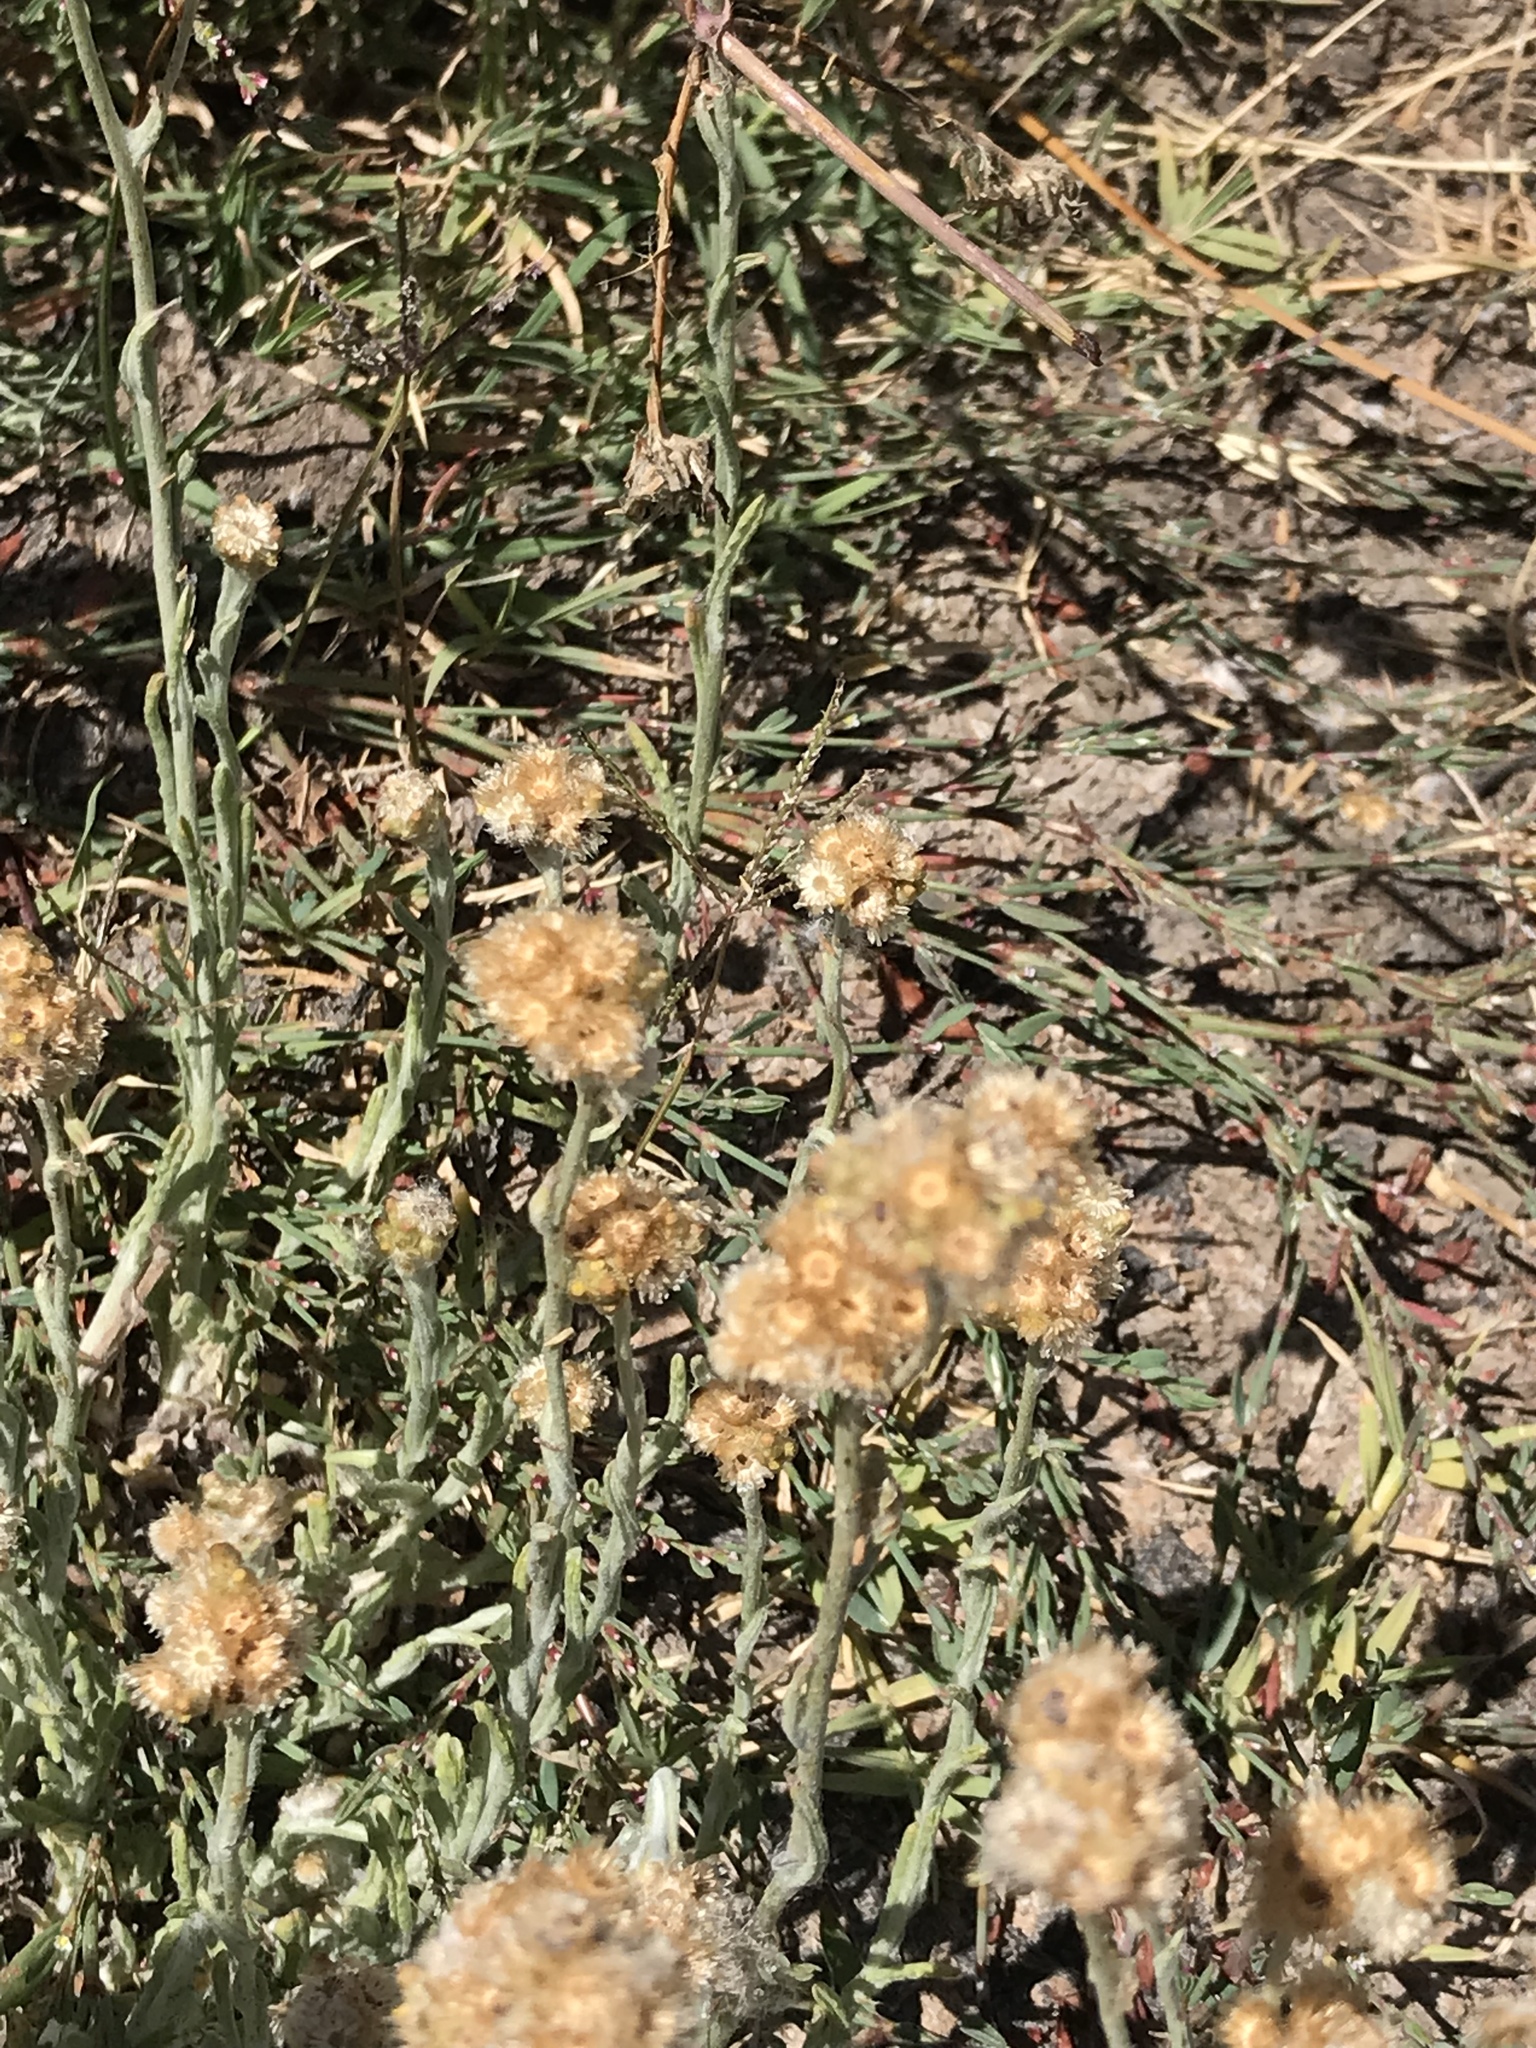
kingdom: Plantae
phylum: Tracheophyta
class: Magnoliopsida
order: Asterales
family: Asteraceae
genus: Helichrysum
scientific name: Helichrysum luteoalbum
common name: Daisy
